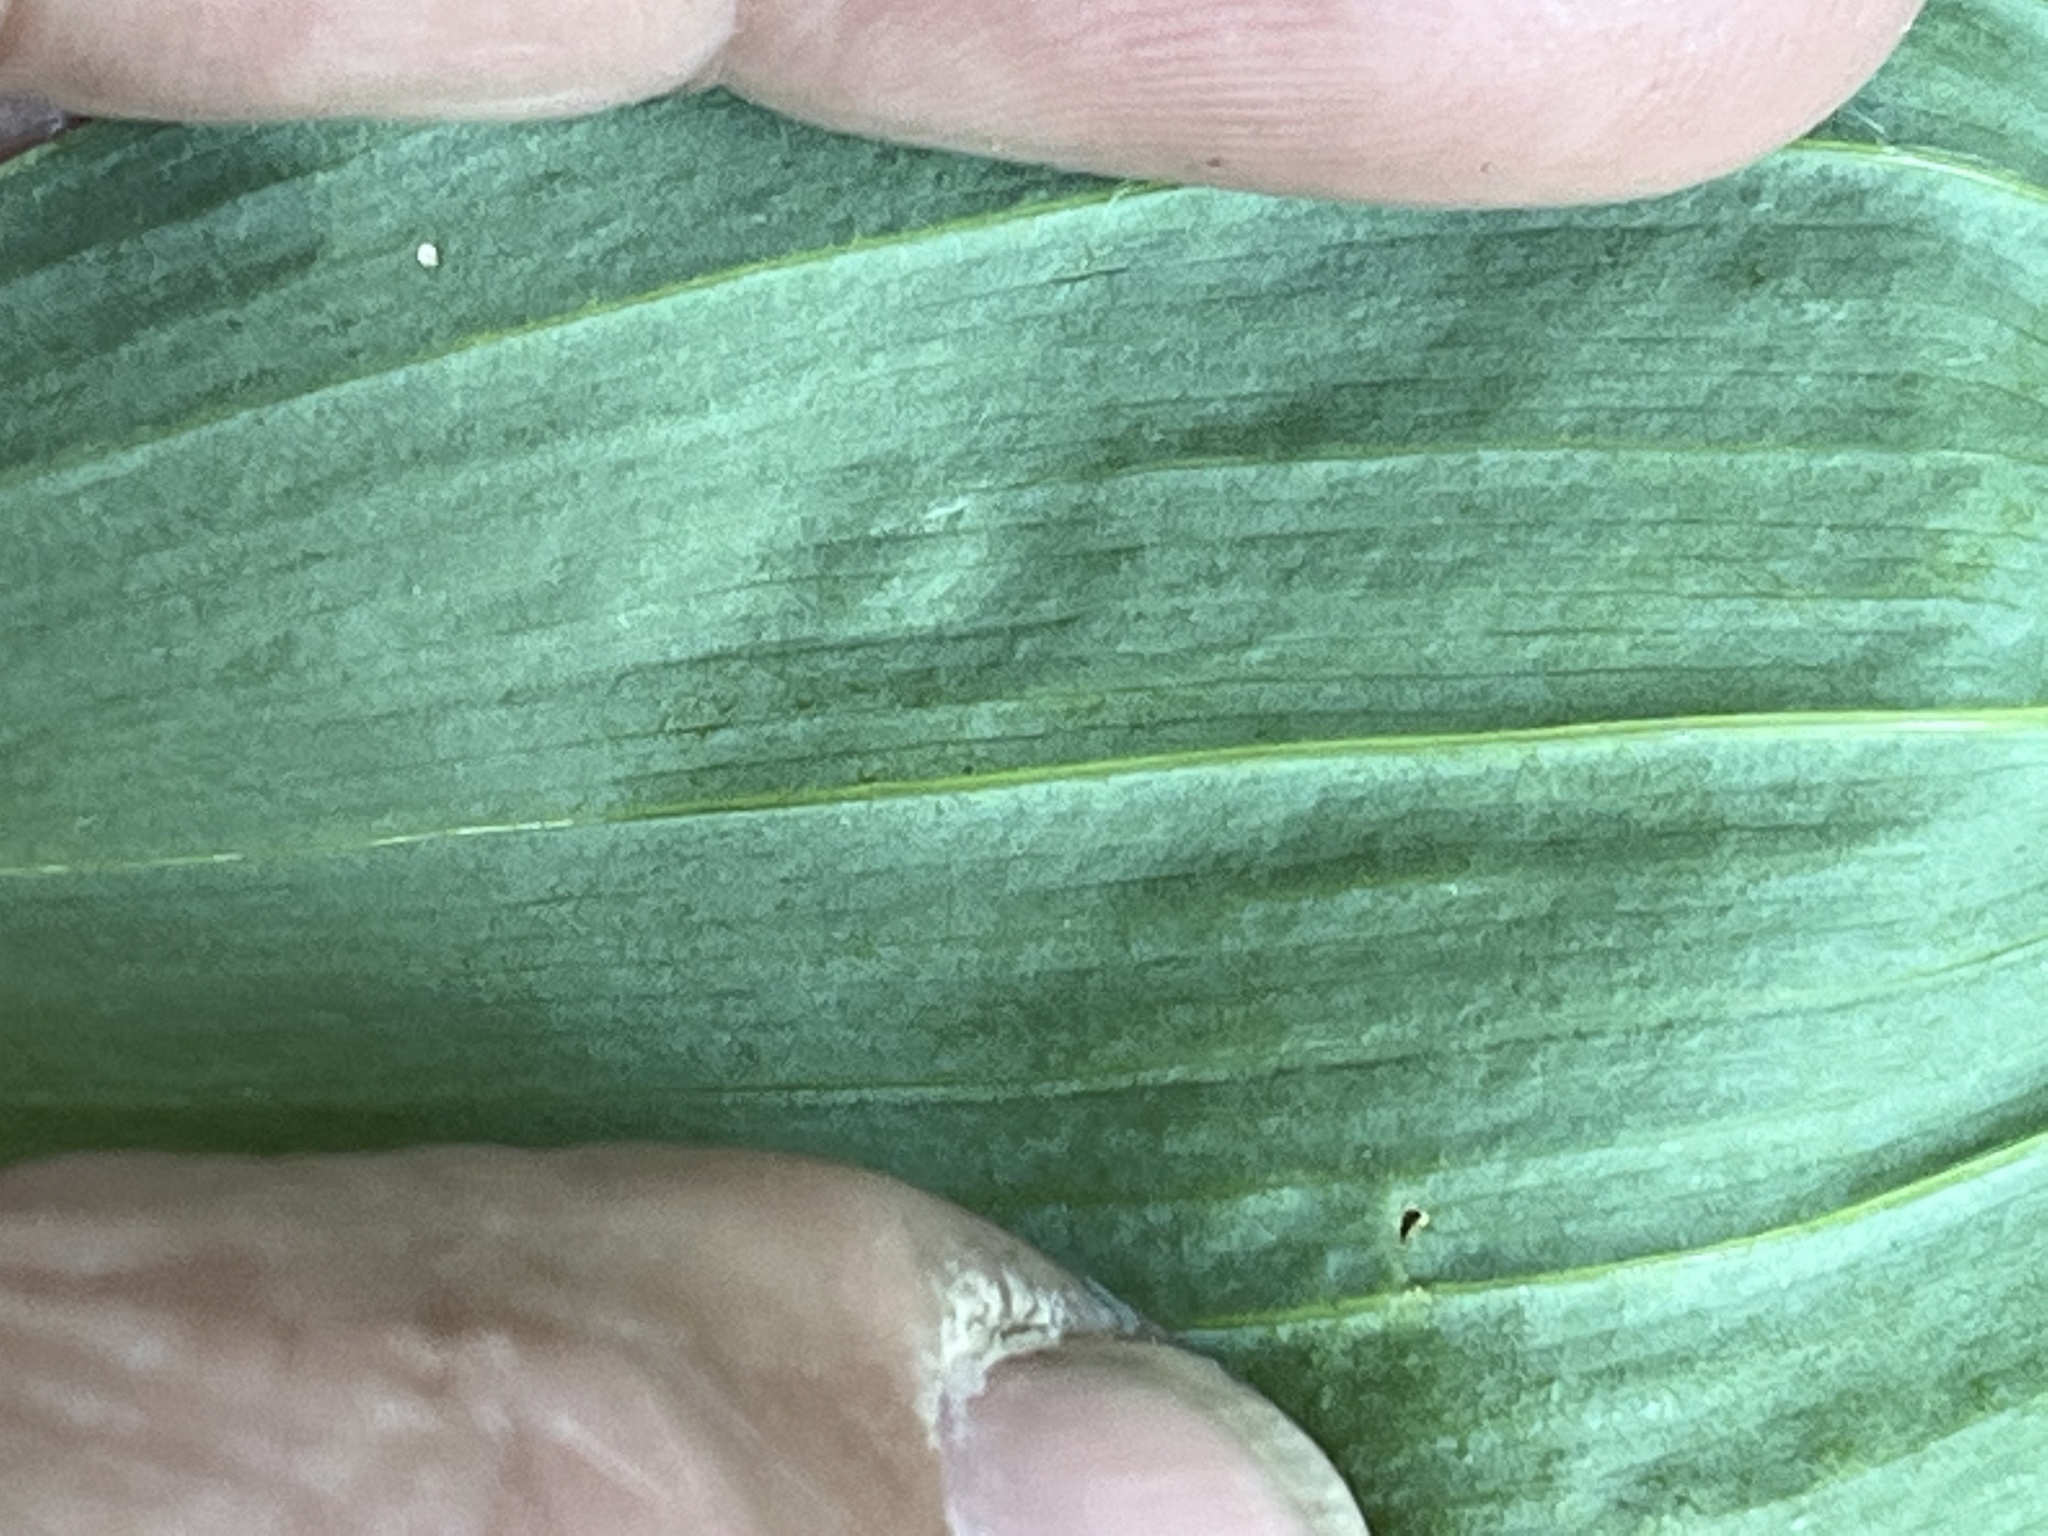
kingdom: Plantae
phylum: Tracheophyta
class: Liliopsida
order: Asparagales
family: Asparagaceae
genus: Polygonatum
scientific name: Polygonatum biflorum
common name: American solomon's-seal
